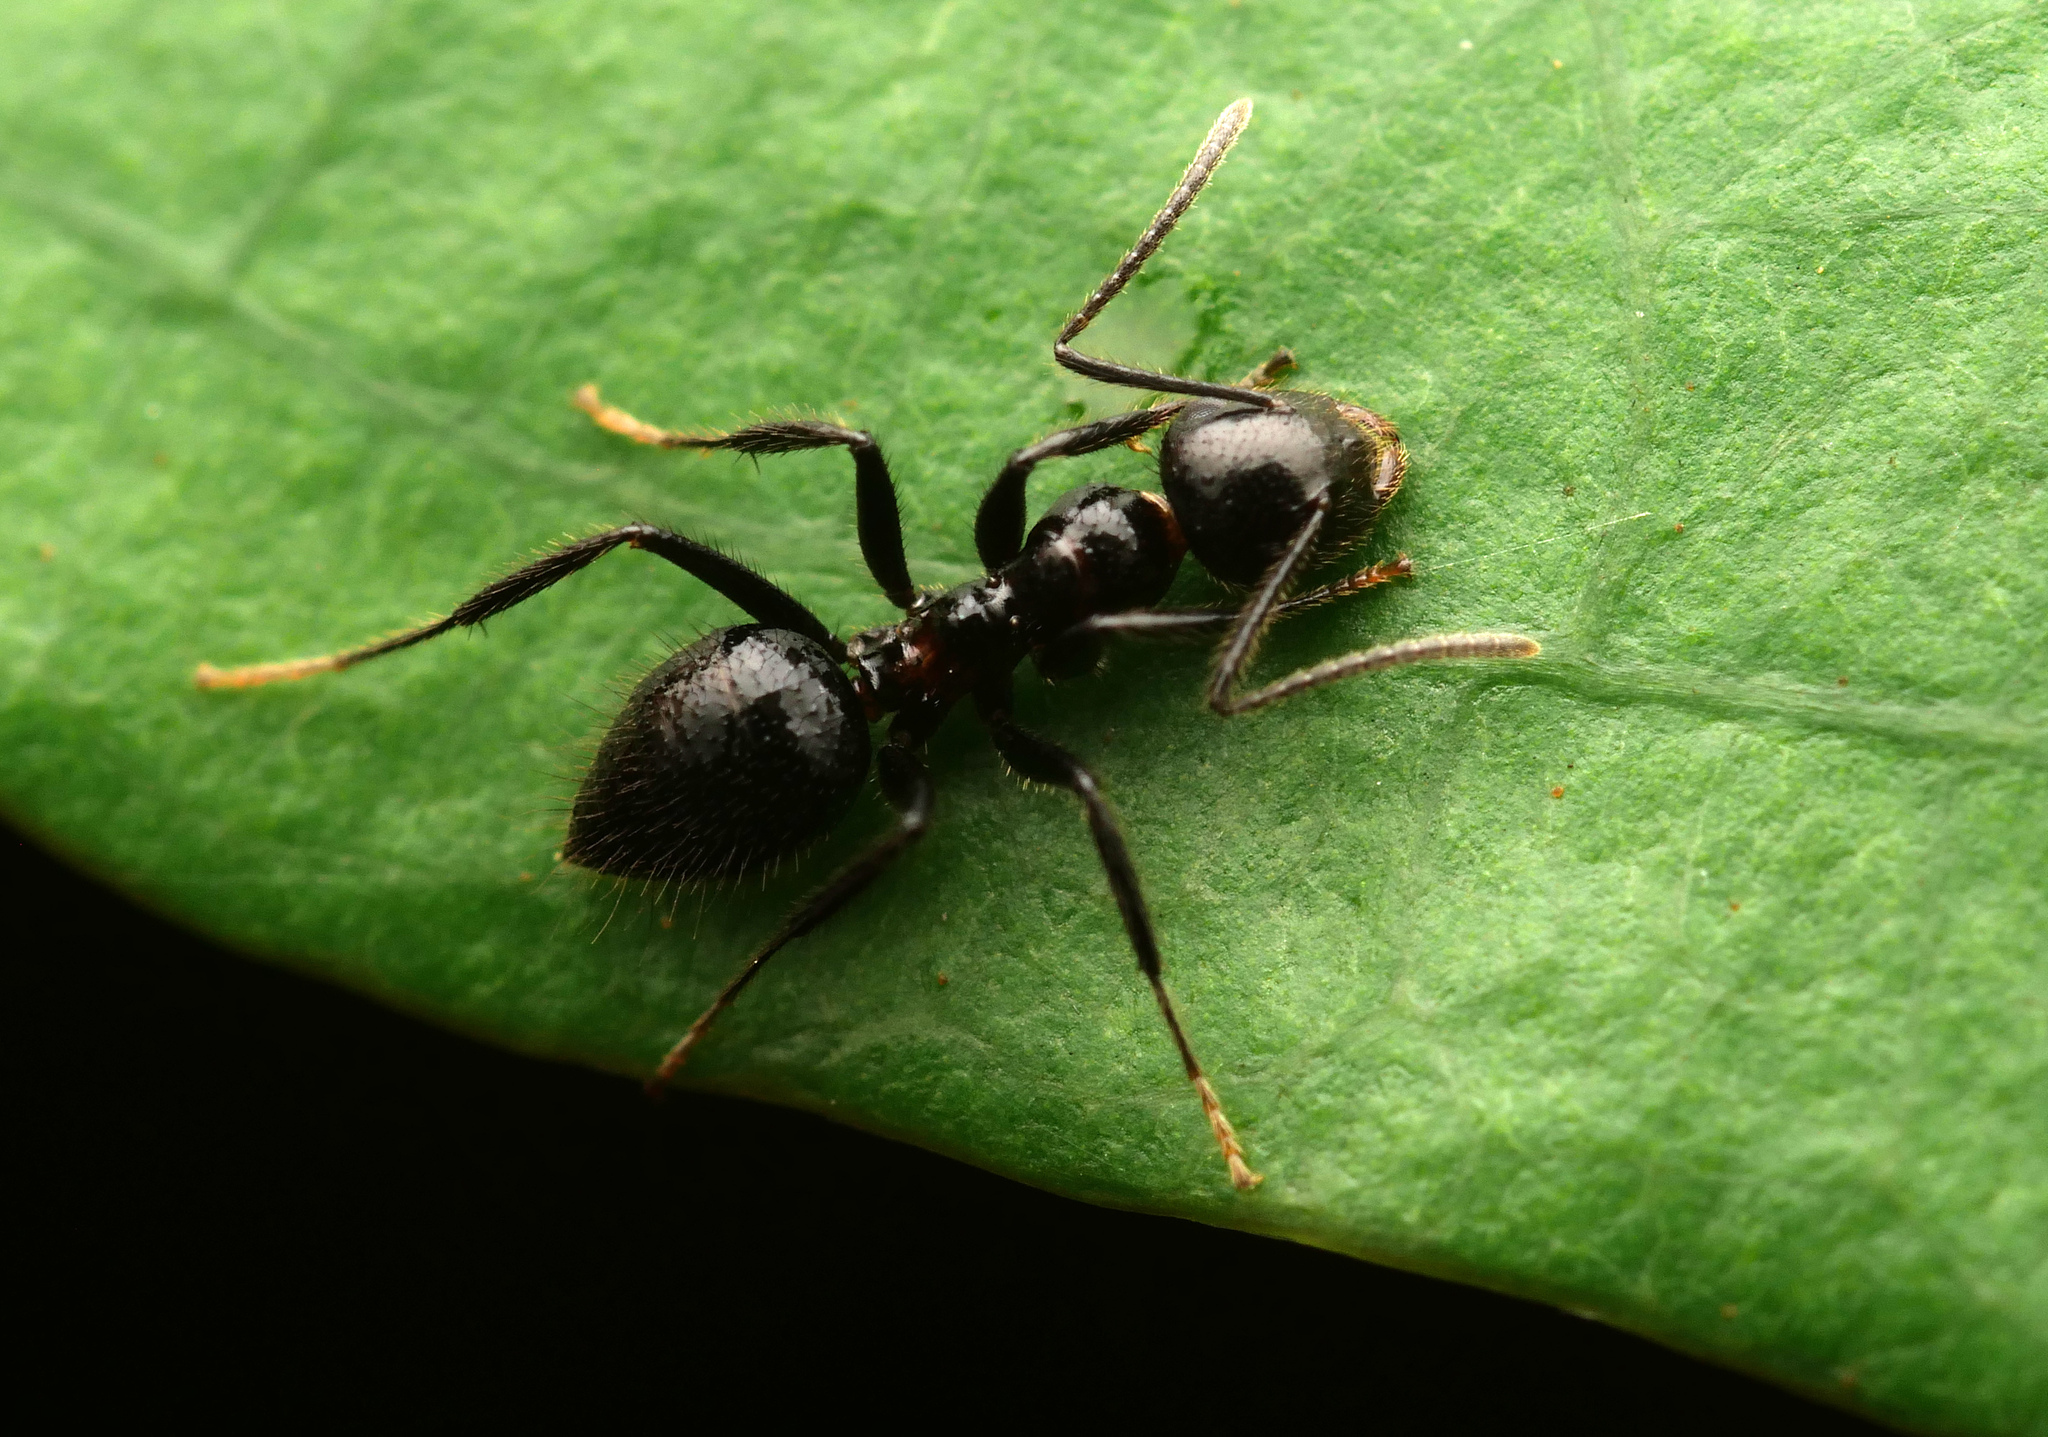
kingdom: Animalia
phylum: Arthropoda
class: Insecta
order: Hymenoptera
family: Formicidae
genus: Camponotus
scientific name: Camponotus vitreus
